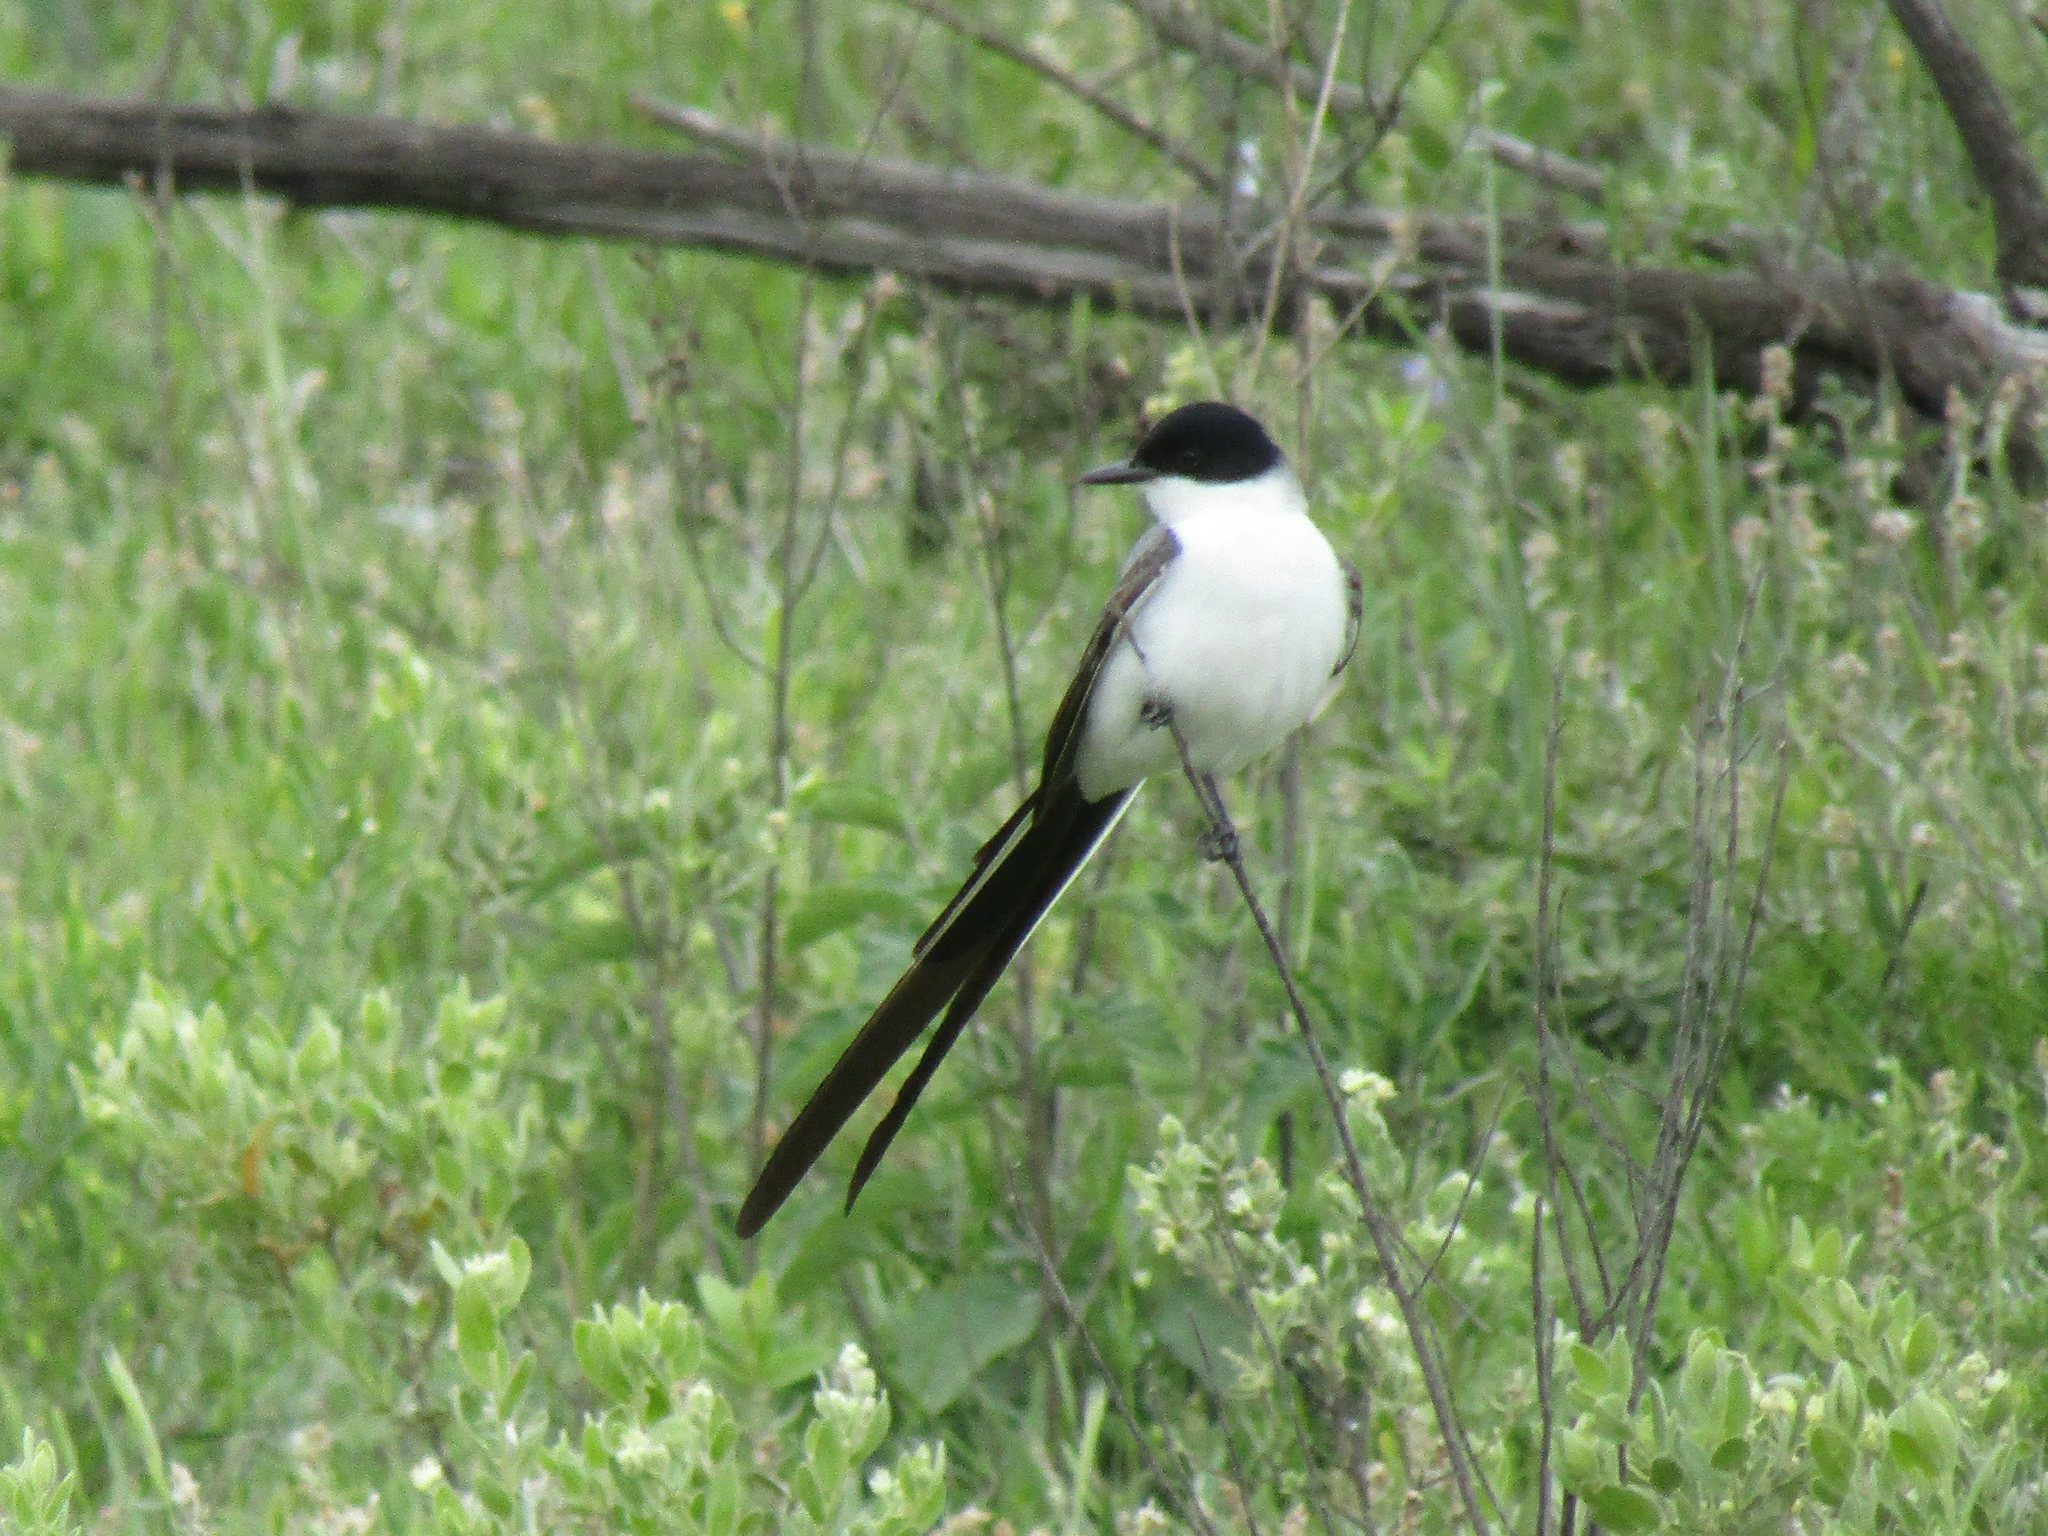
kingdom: Animalia
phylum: Chordata
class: Aves
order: Passeriformes
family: Tyrannidae
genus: Tyrannus
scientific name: Tyrannus savana
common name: Fork-tailed flycatcher
